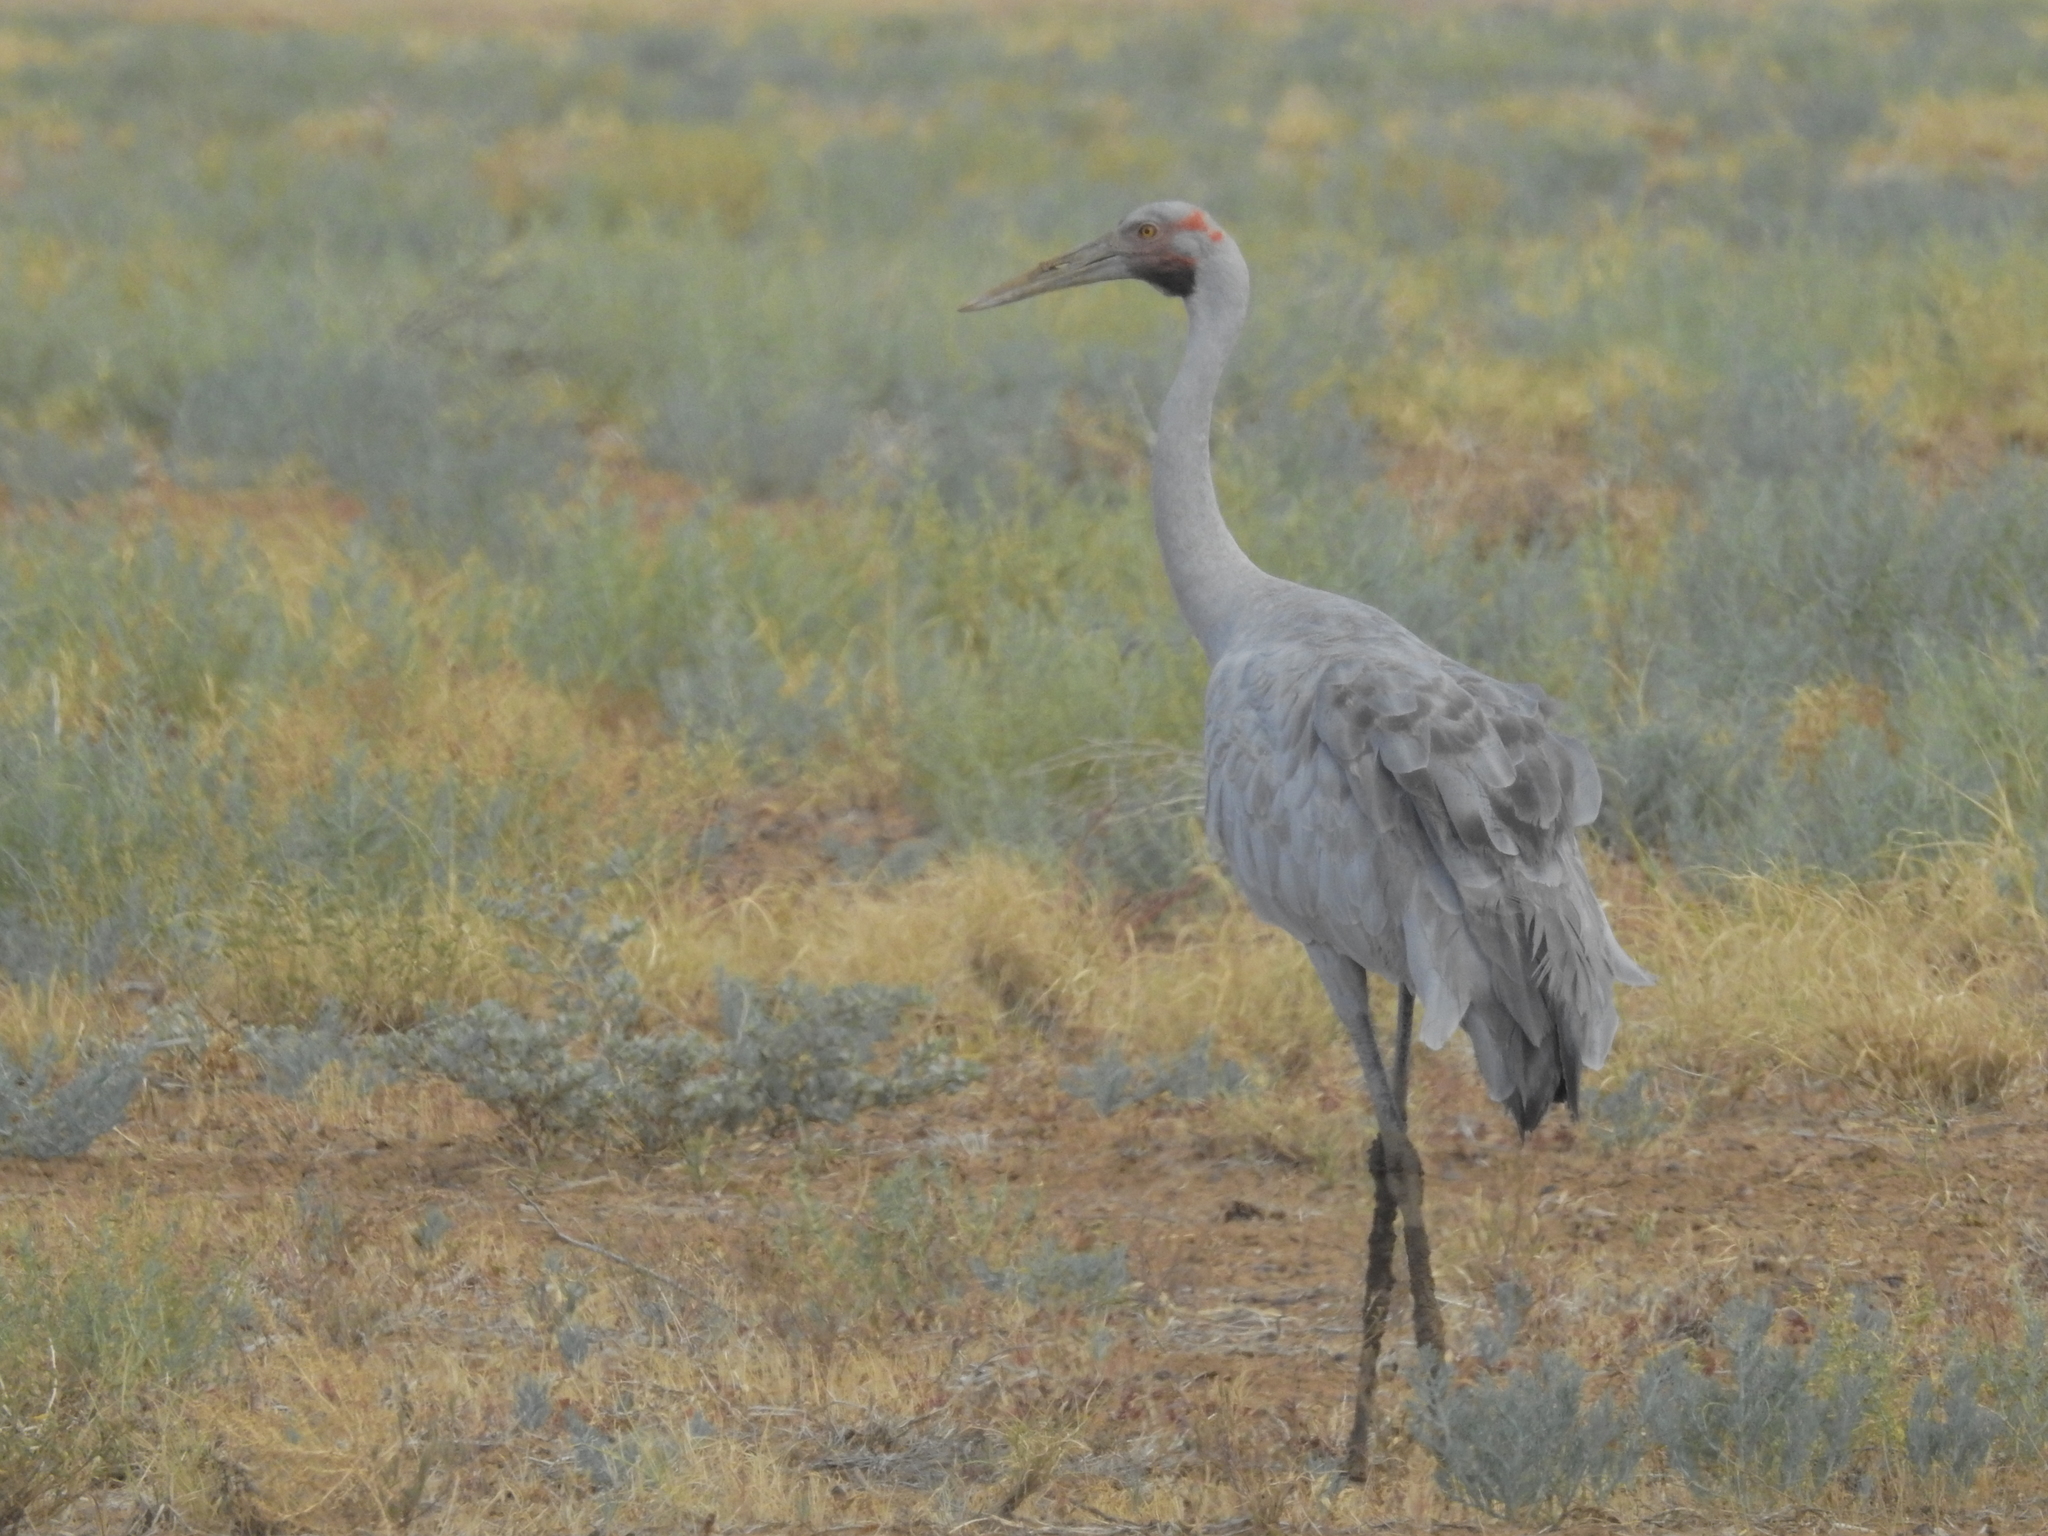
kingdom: Animalia
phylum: Chordata
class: Aves
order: Gruiformes
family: Gruidae
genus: Grus
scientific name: Grus rubicunda
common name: Brolga
